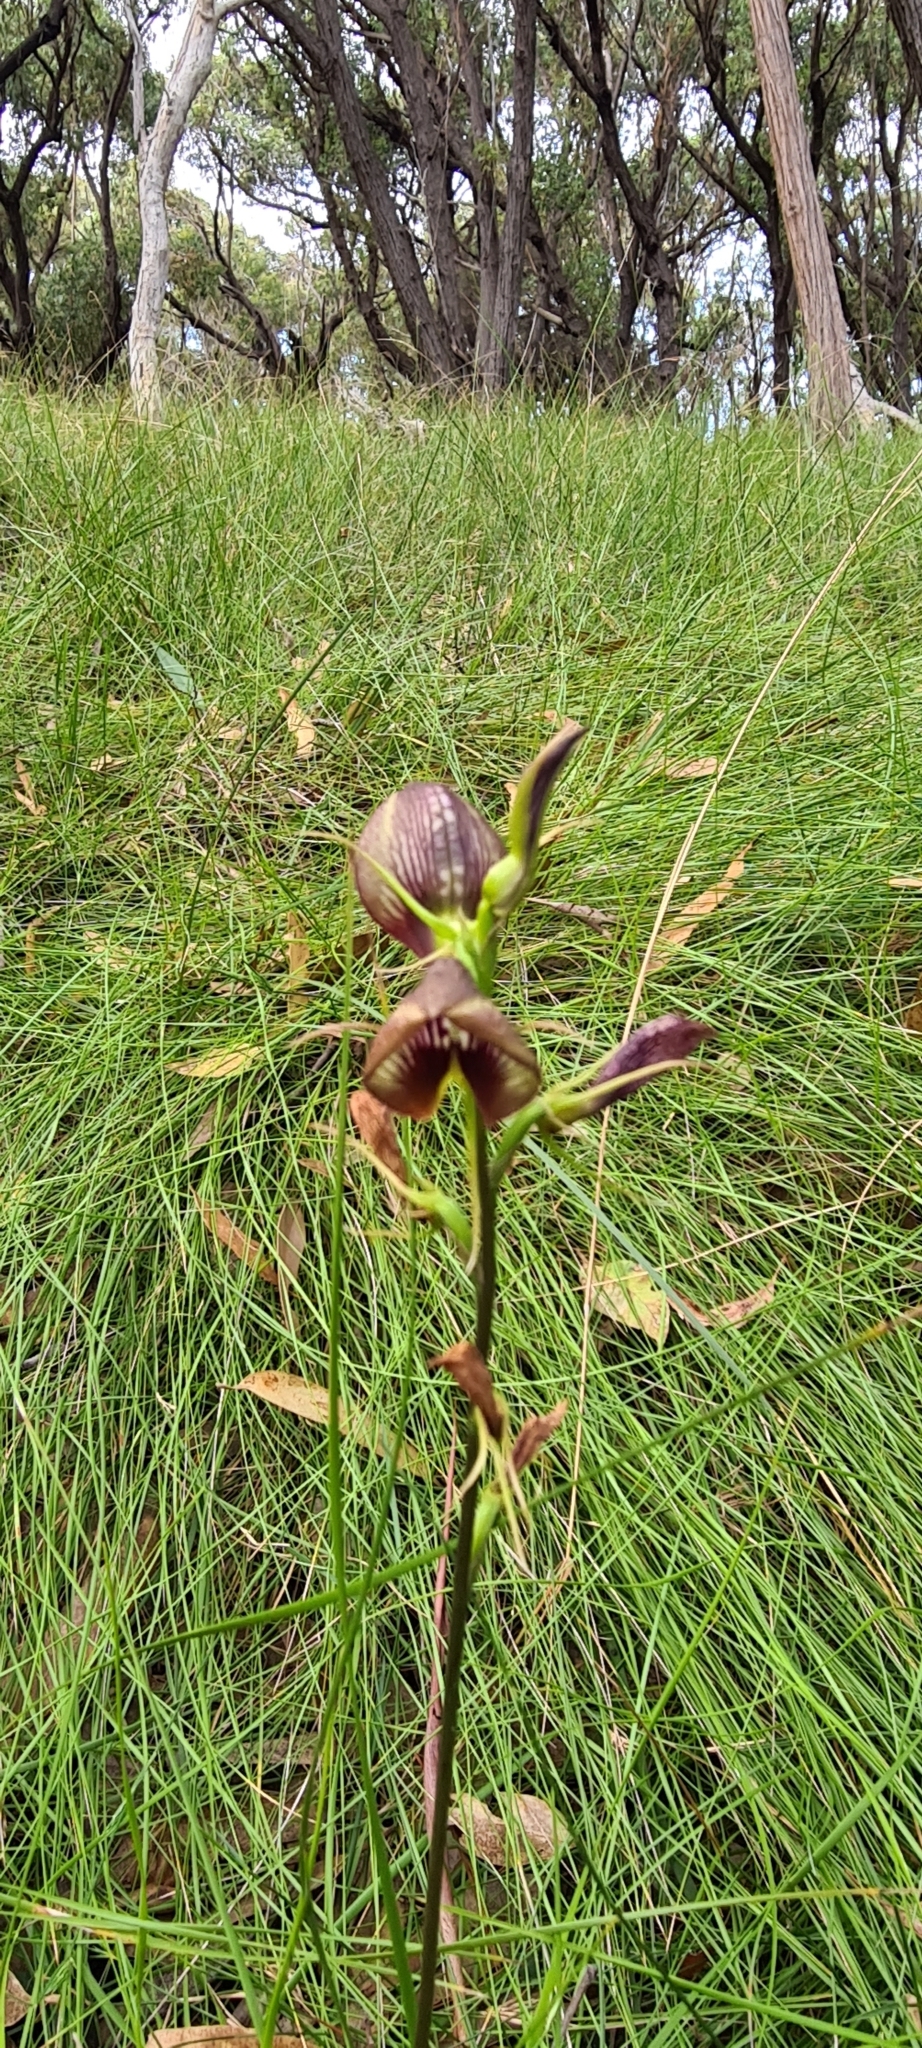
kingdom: Plantae
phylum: Tracheophyta
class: Liliopsida
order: Asparagales
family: Orchidaceae
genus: Cryptostylis
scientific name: Cryptostylis erecta
